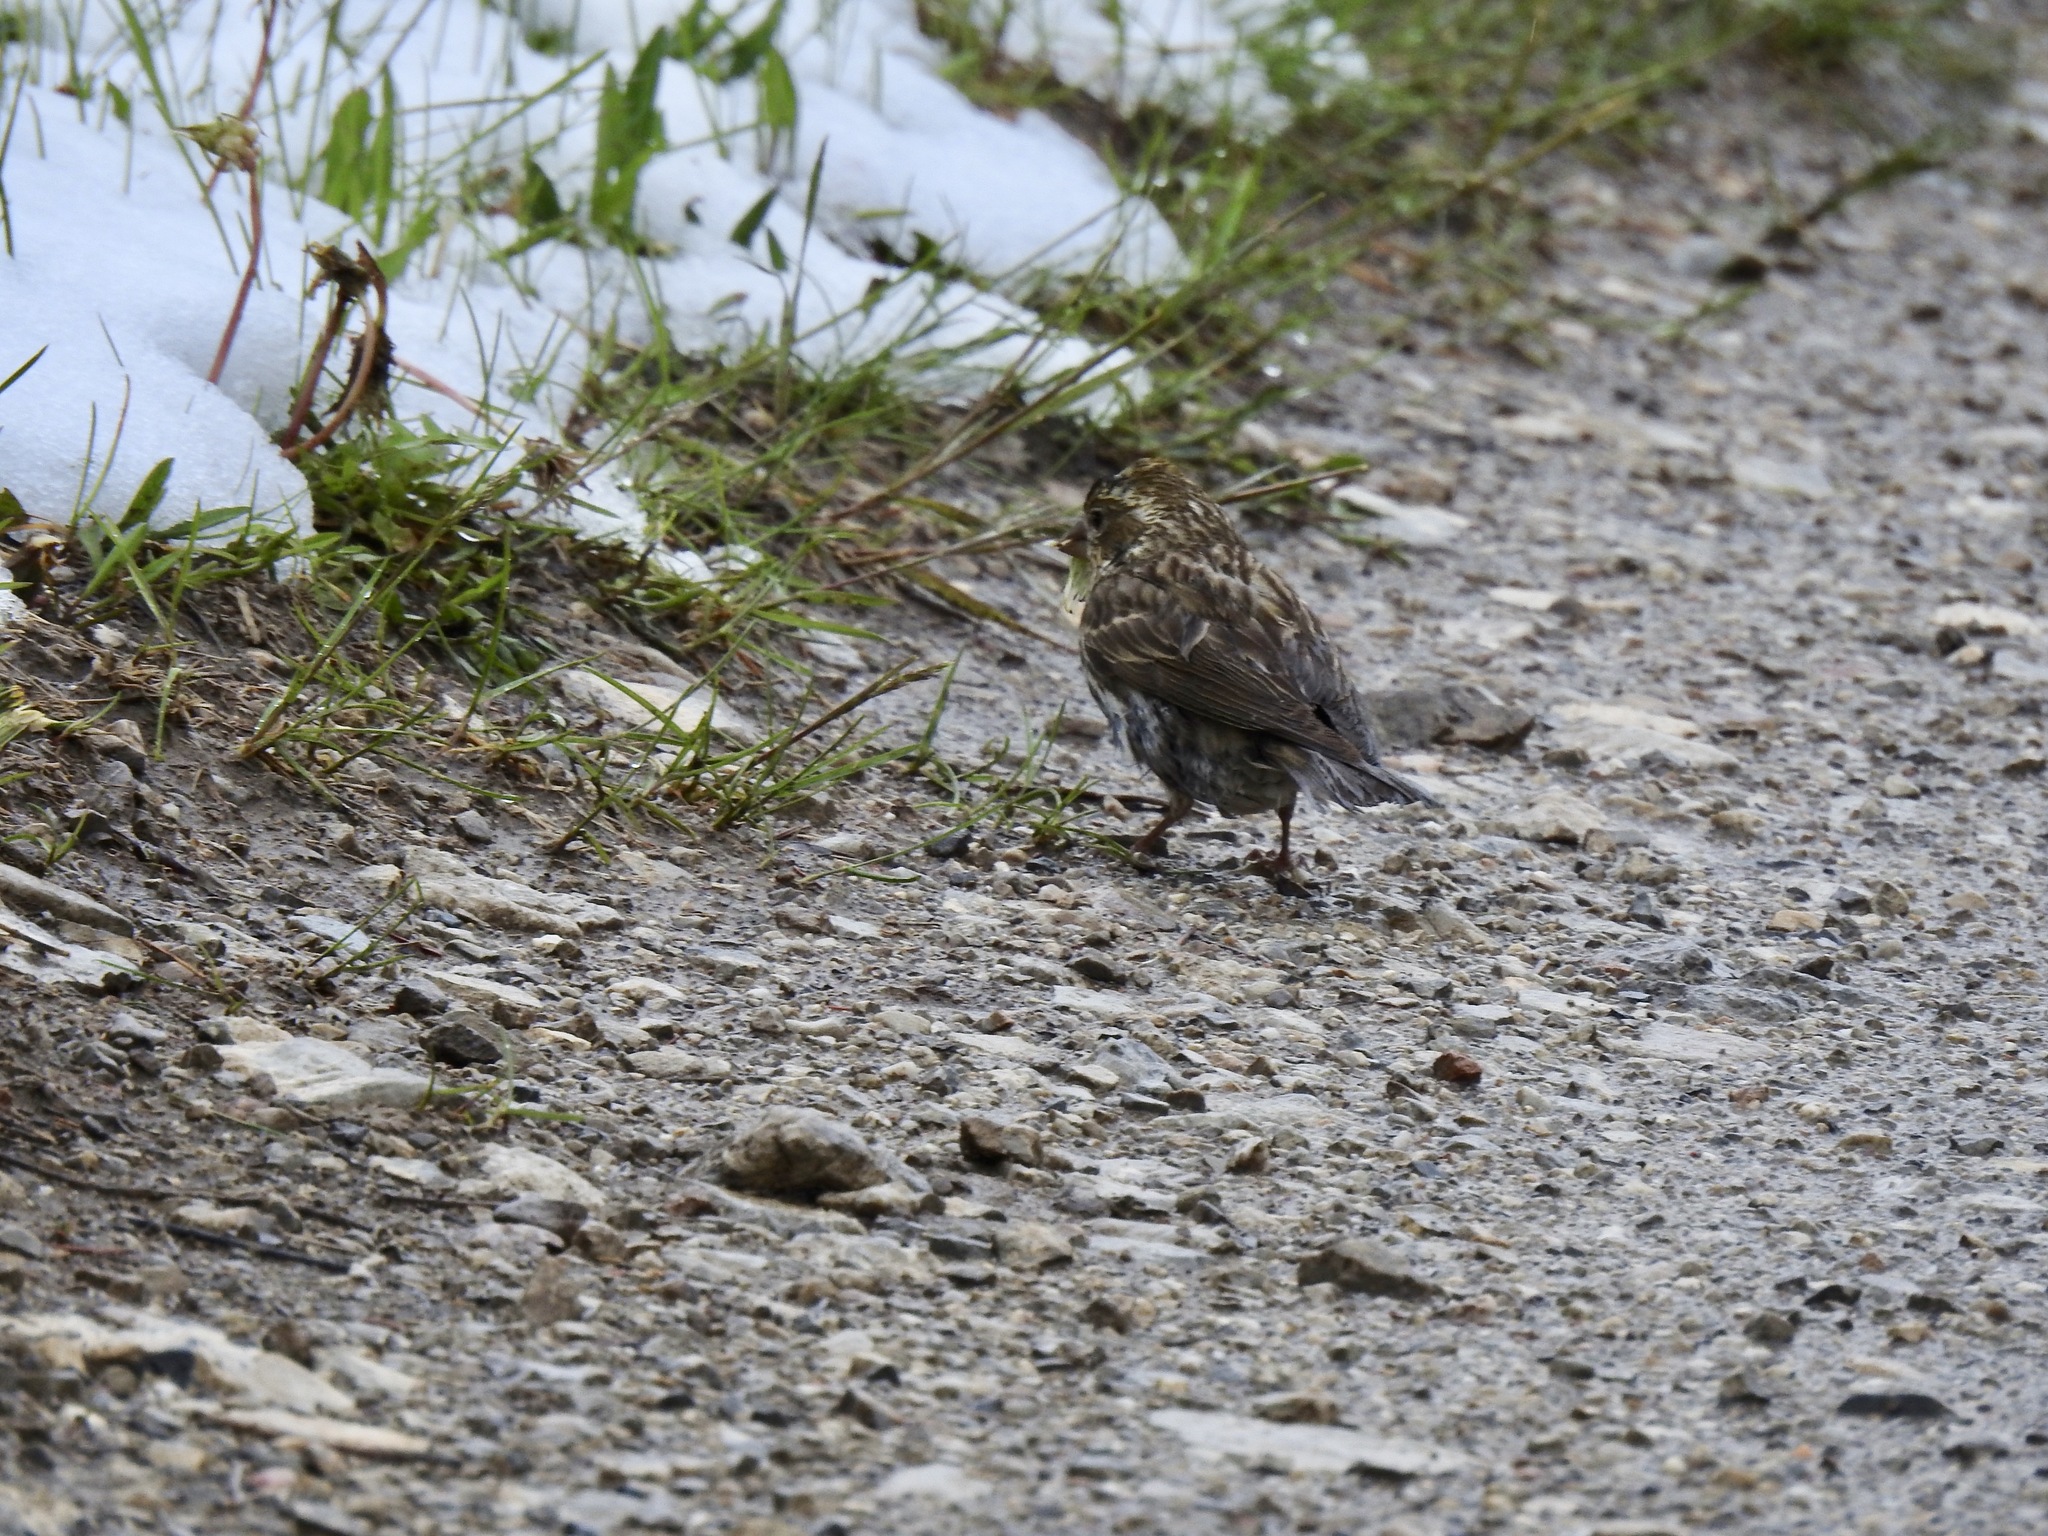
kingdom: Animalia
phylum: Chordata
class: Aves
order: Passeriformes
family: Fringillidae
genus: Haemorhous
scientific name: Haemorhous cassinii
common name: Cassin's finch
